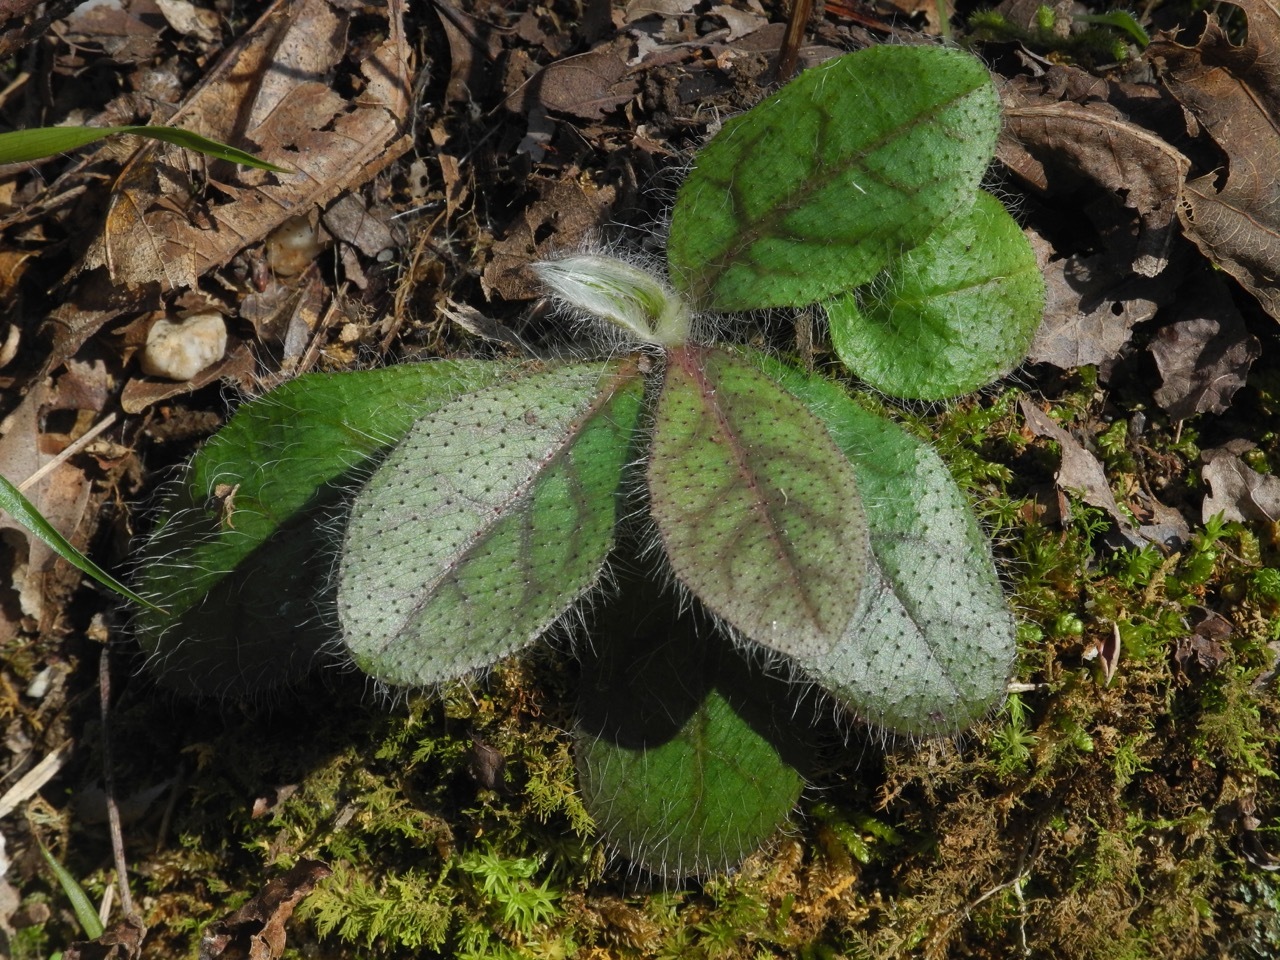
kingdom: Plantae
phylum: Tracheophyta
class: Magnoliopsida
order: Asterales
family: Asteraceae
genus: Hieracium
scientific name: Hieracium marianum
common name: Maryland hawkweed
